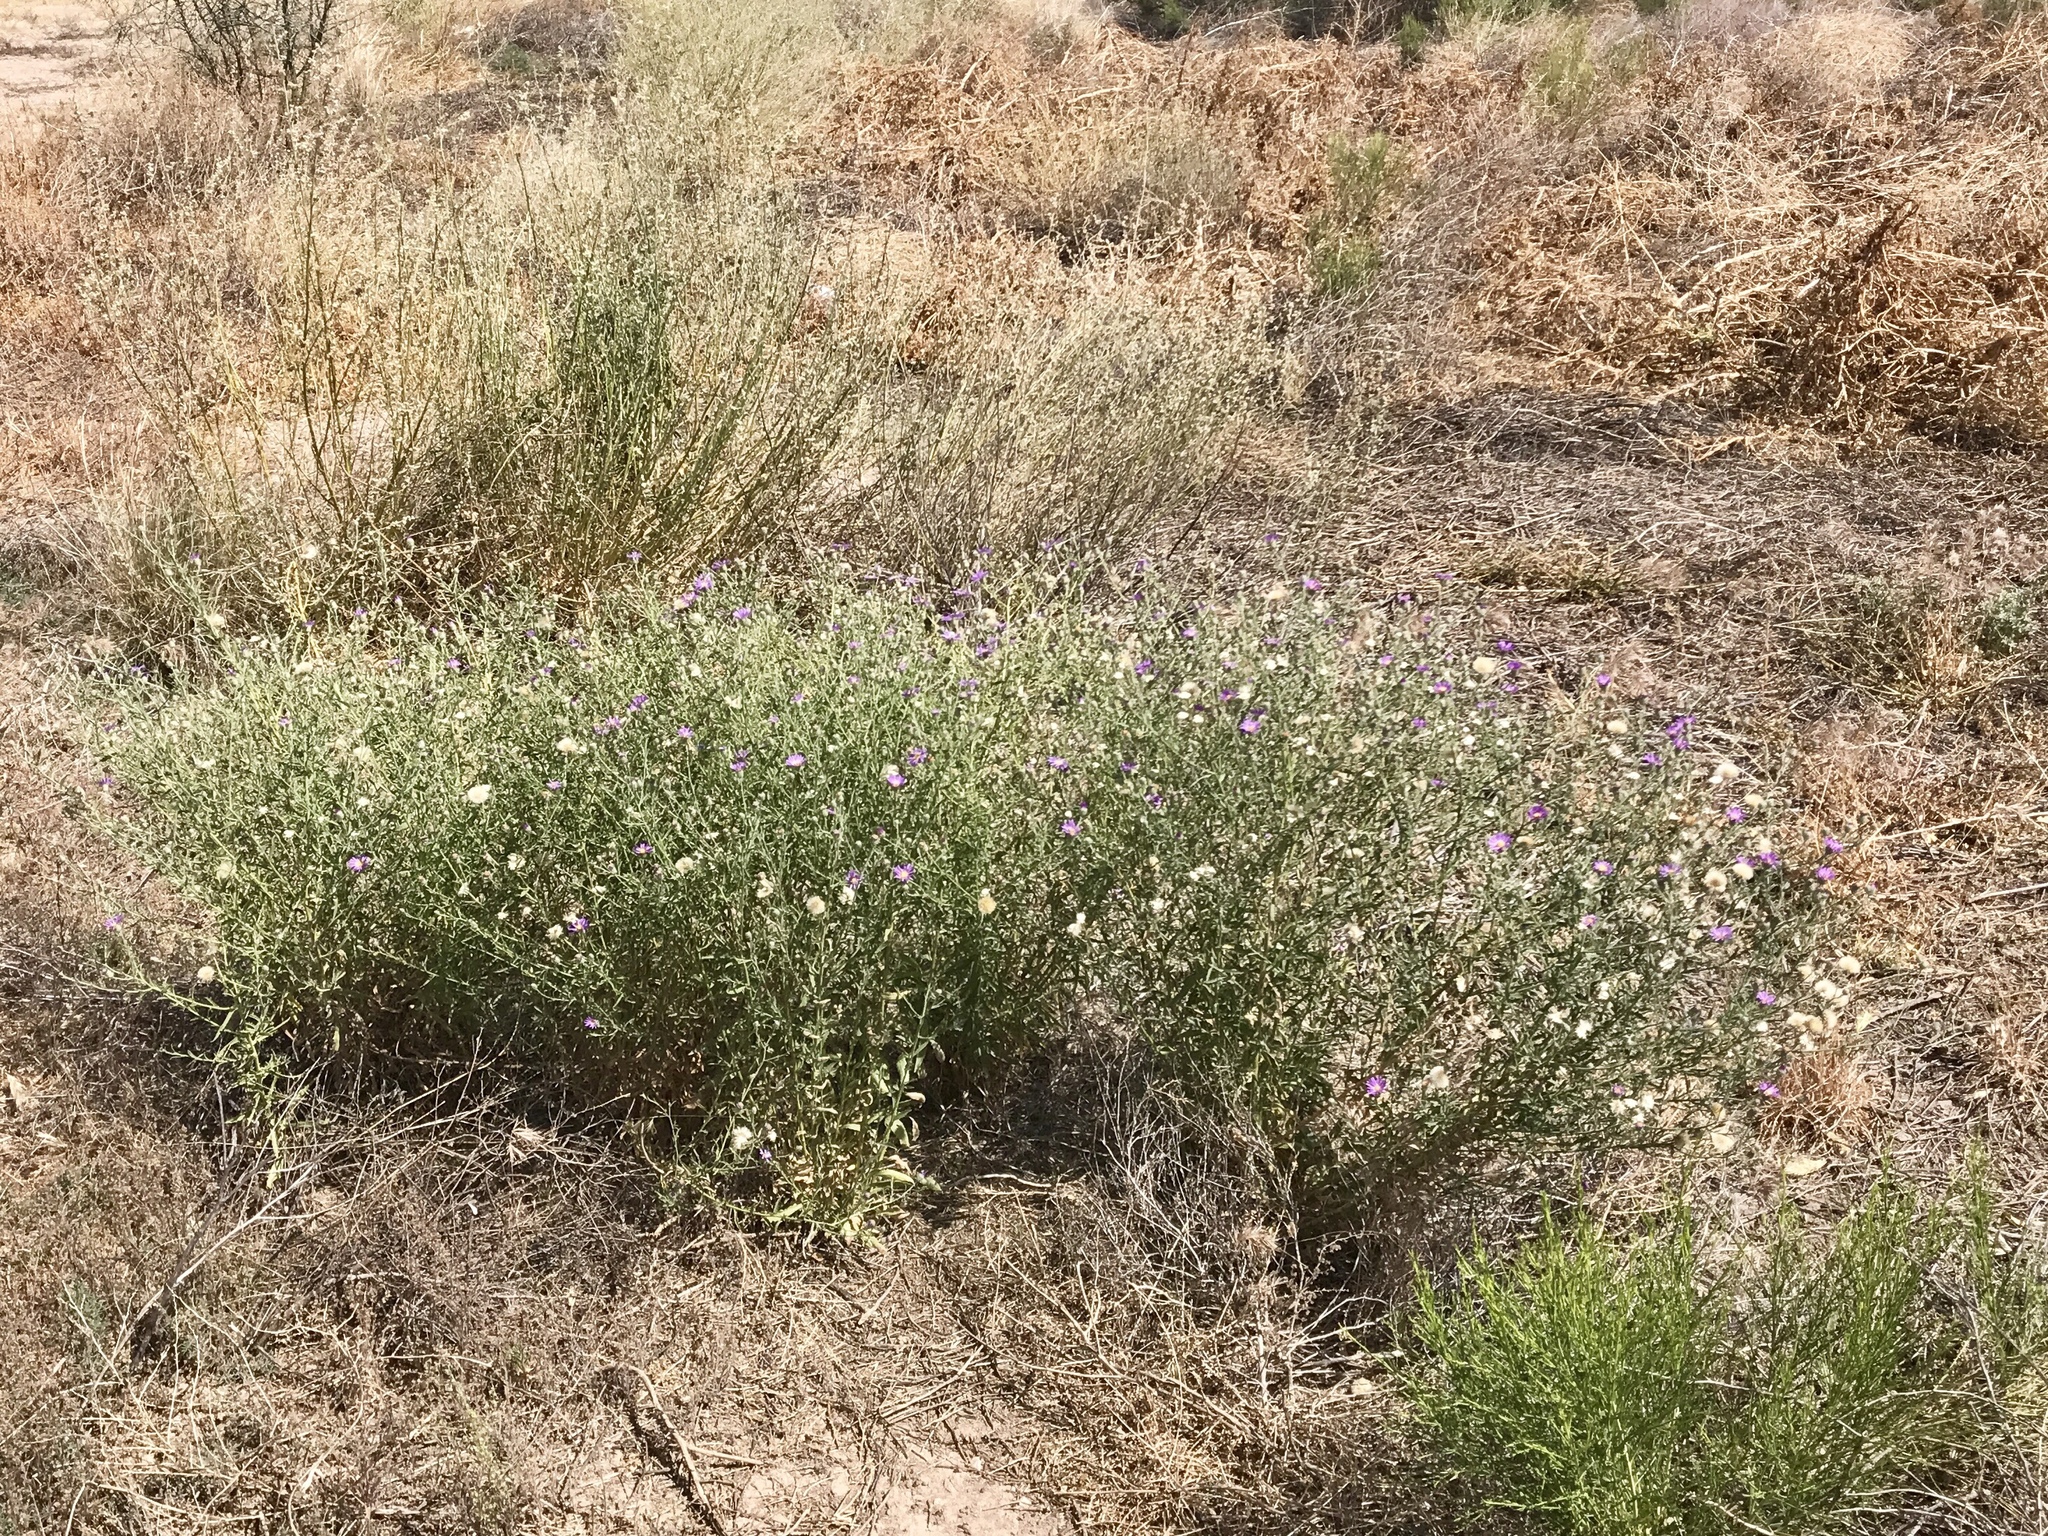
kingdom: Plantae
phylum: Tracheophyta
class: Magnoliopsida
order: Asterales
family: Asteraceae
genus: Machaeranthera
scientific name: Machaeranthera tanacetifolia
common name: Tansy-aster
